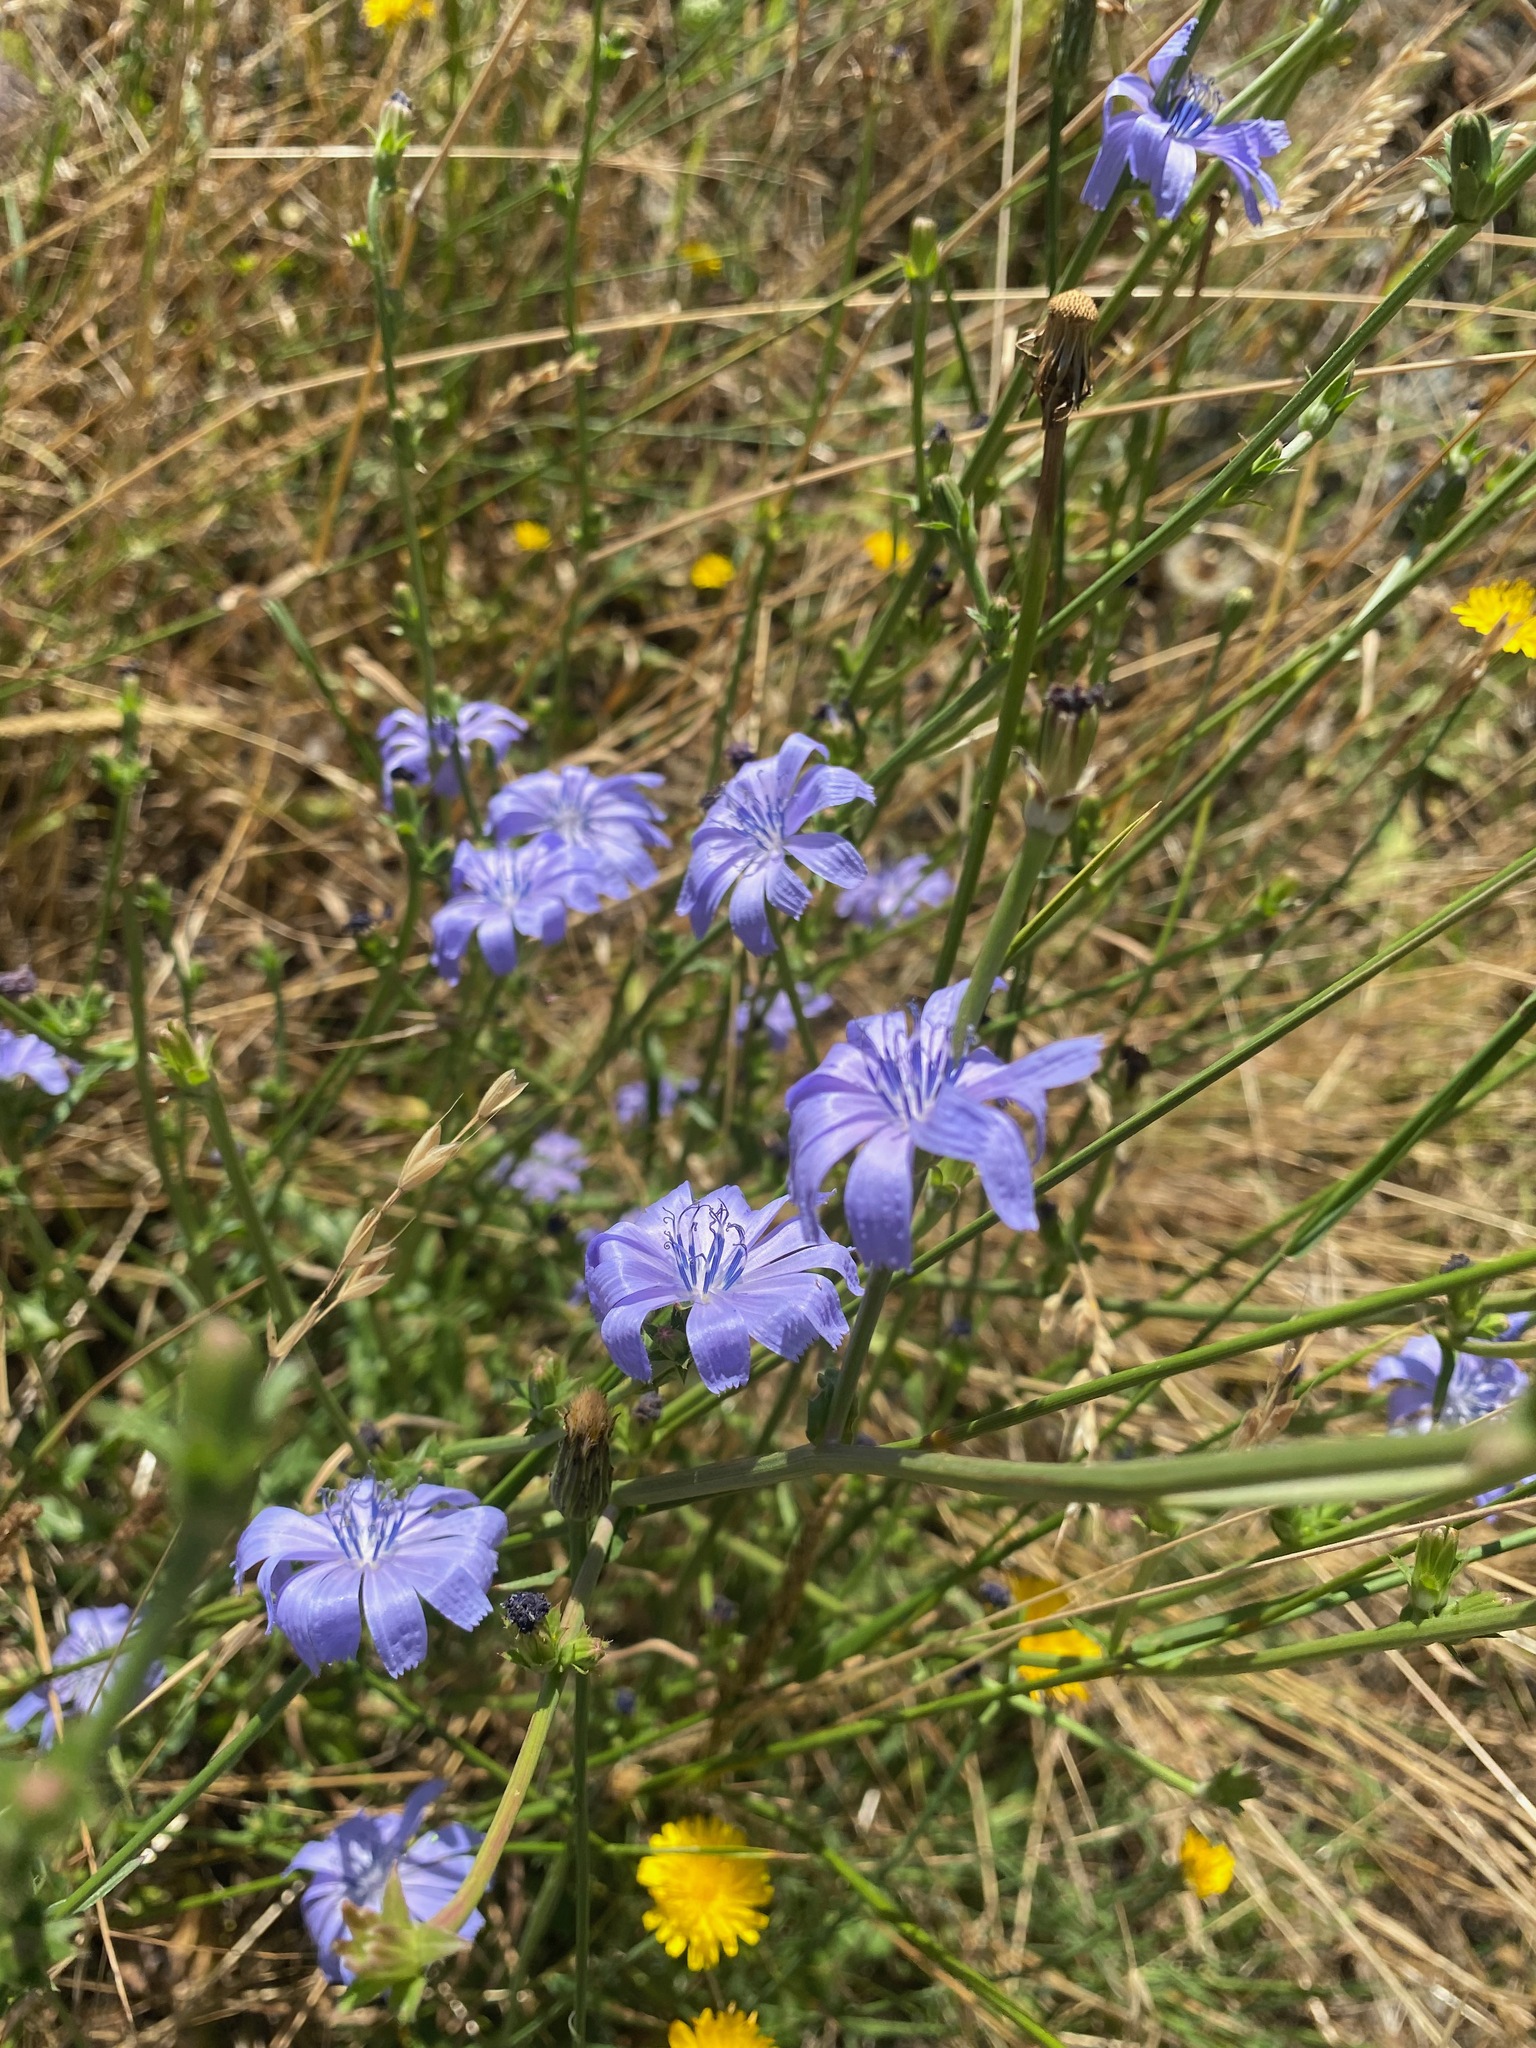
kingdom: Plantae
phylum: Tracheophyta
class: Magnoliopsida
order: Asterales
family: Asteraceae
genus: Cichorium
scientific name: Cichorium intybus
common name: Chicory
